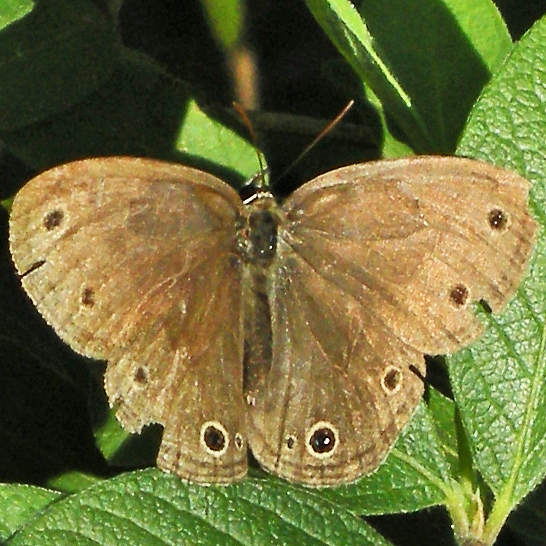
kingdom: Animalia
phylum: Arthropoda
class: Insecta
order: Lepidoptera
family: Nymphalidae
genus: Euptychia
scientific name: Euptychia cymela
